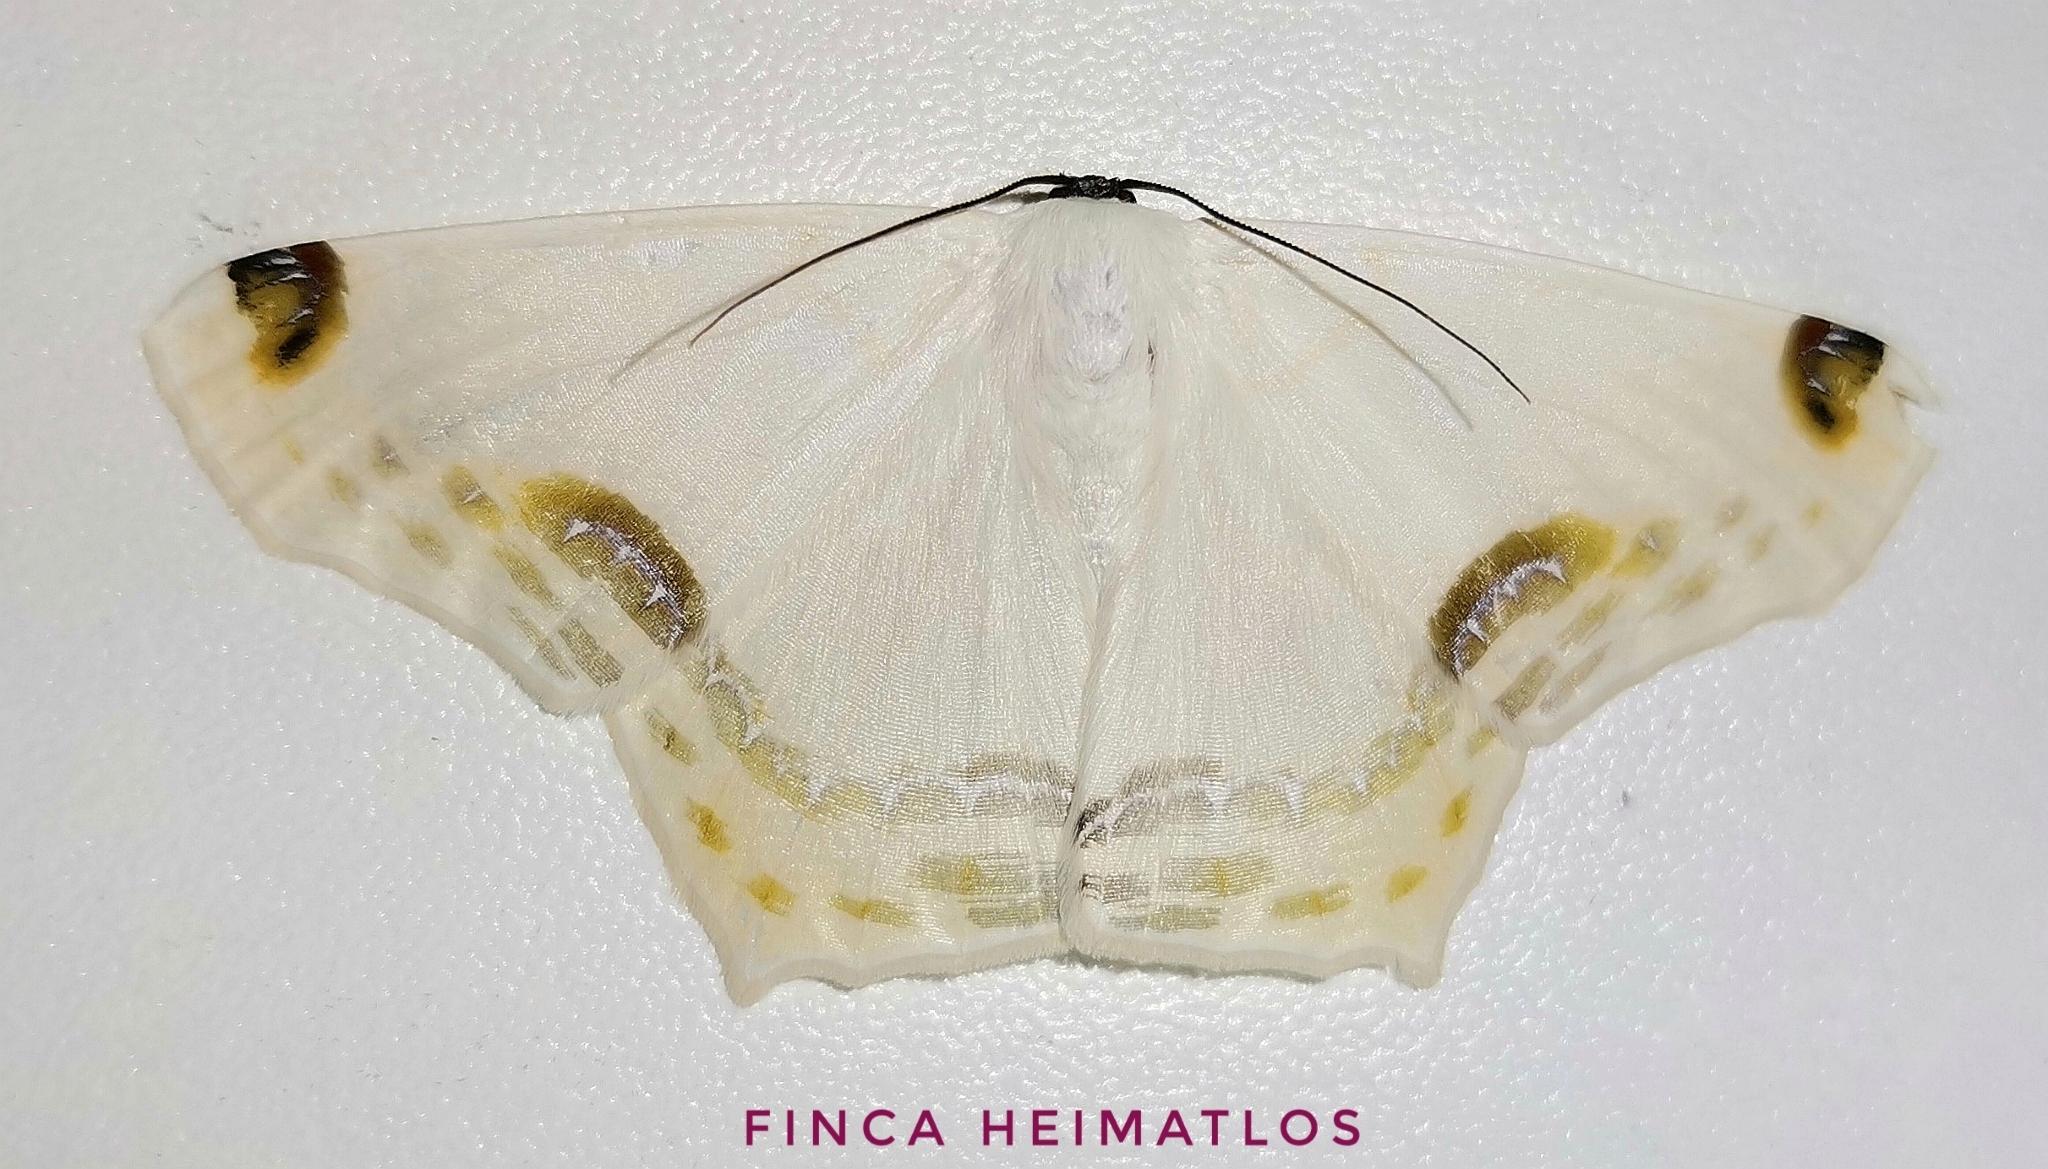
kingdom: Animalia
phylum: Arthropoda
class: Insecta
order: Lepidoptera
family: Geometridae
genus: Sericoptera
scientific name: Sericoptera chiffa
